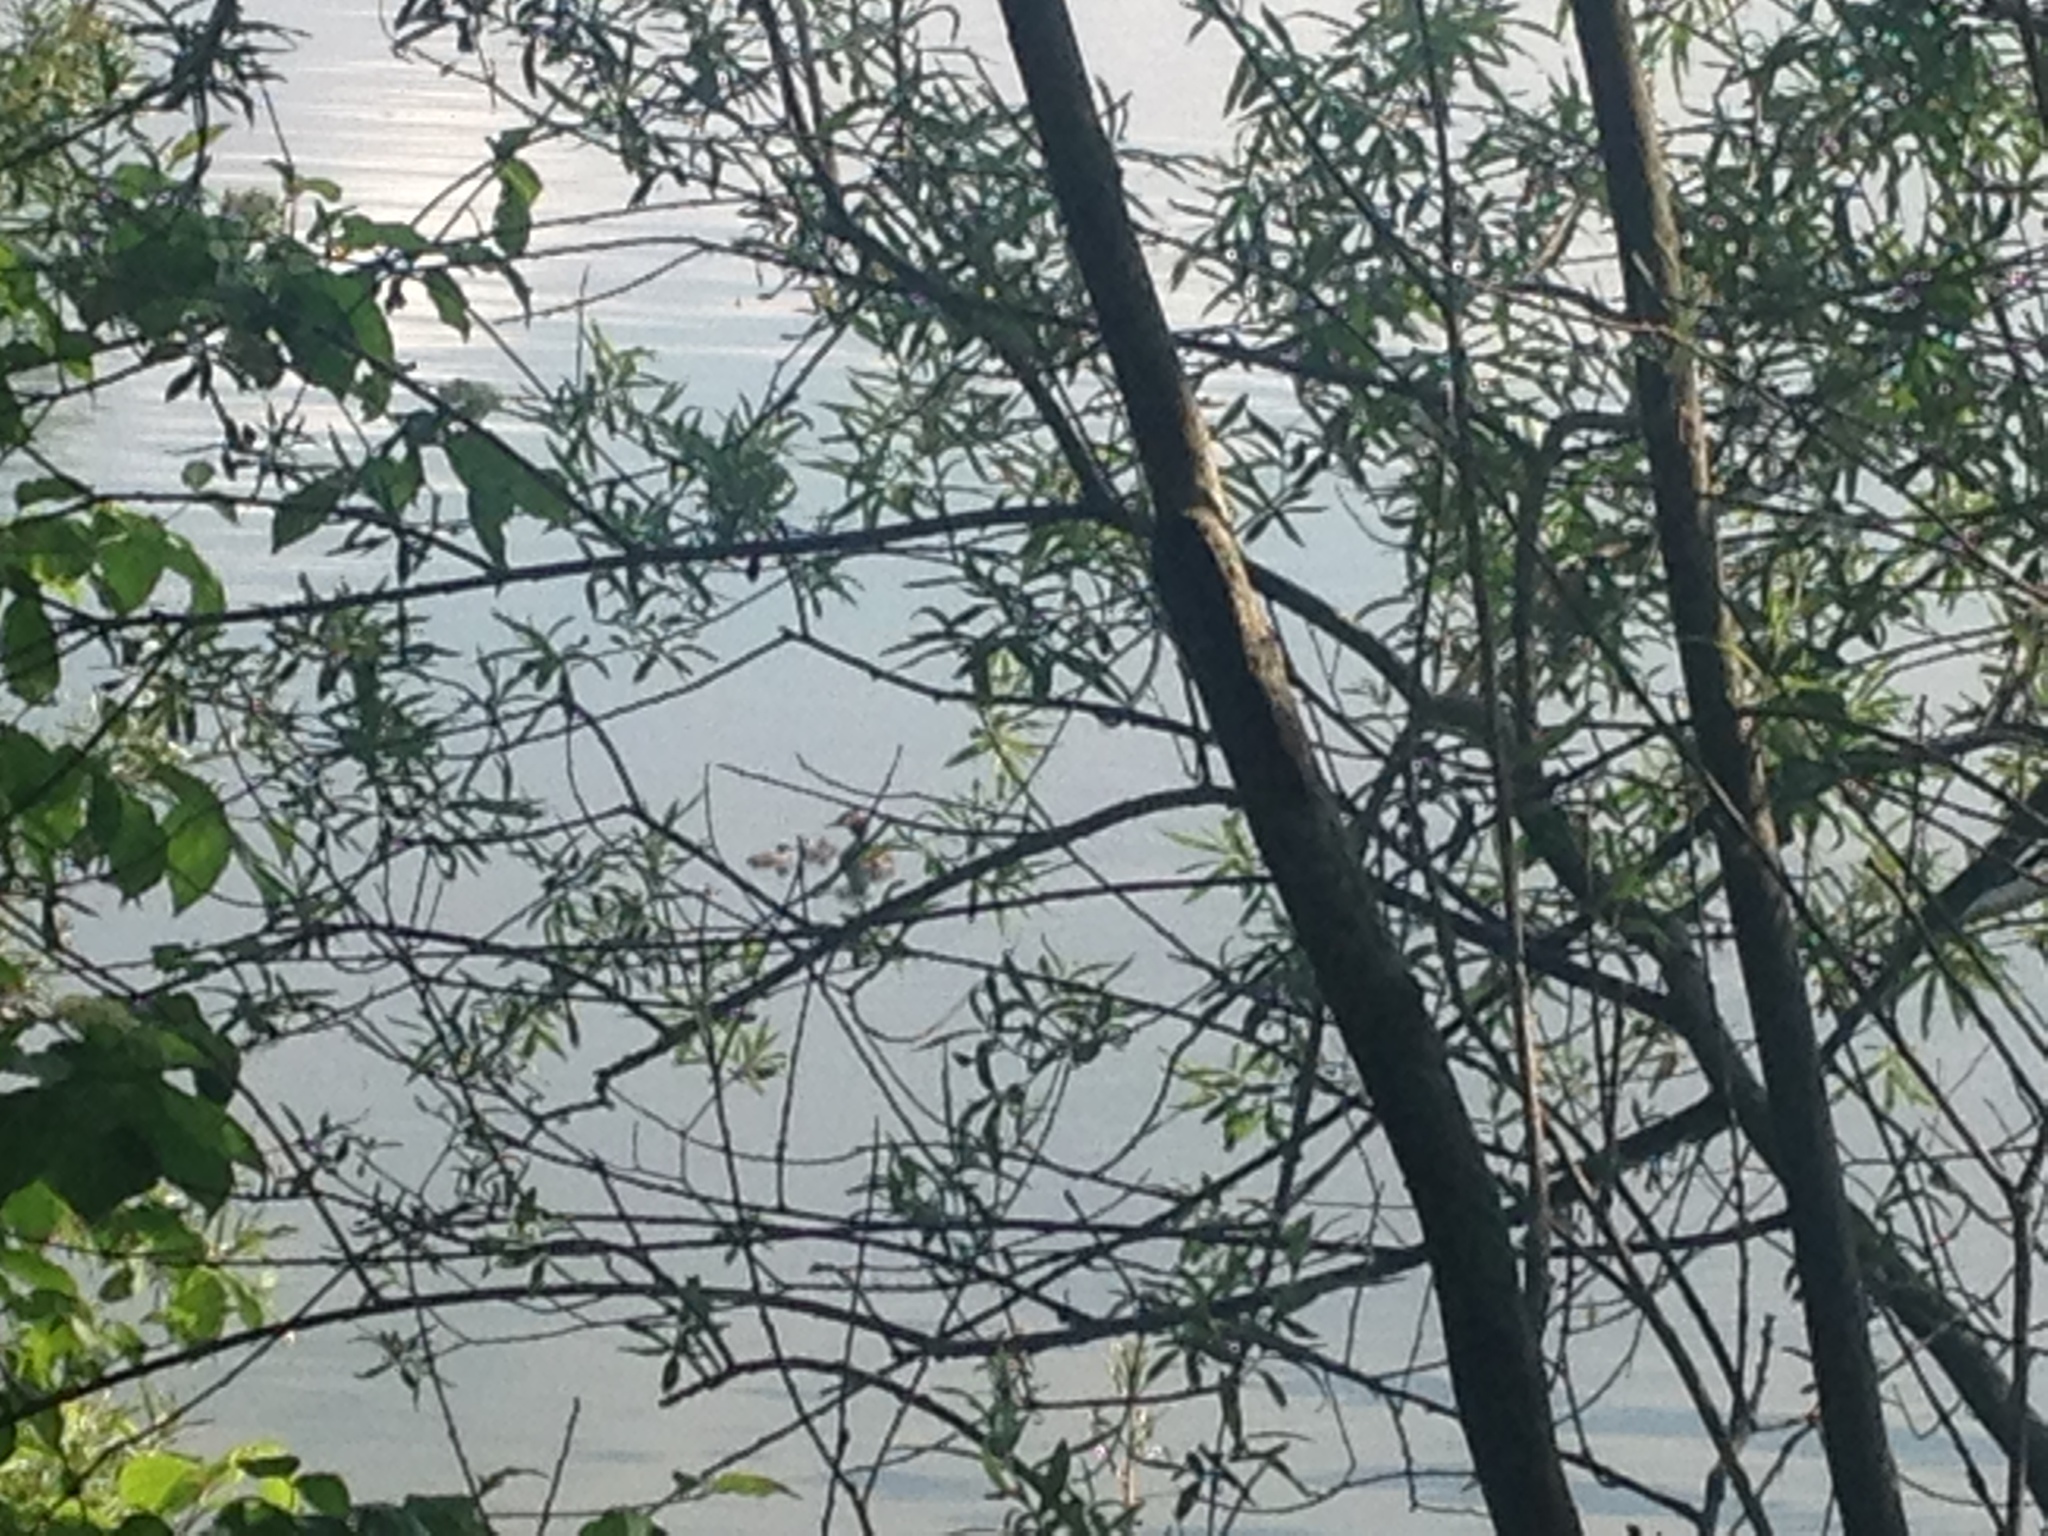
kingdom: Animalia
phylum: Chordata
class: Aves
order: Podicipediformes
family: Podicipedidae
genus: Podiceps
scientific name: Podiceps cristatus
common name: Great crested grebe
